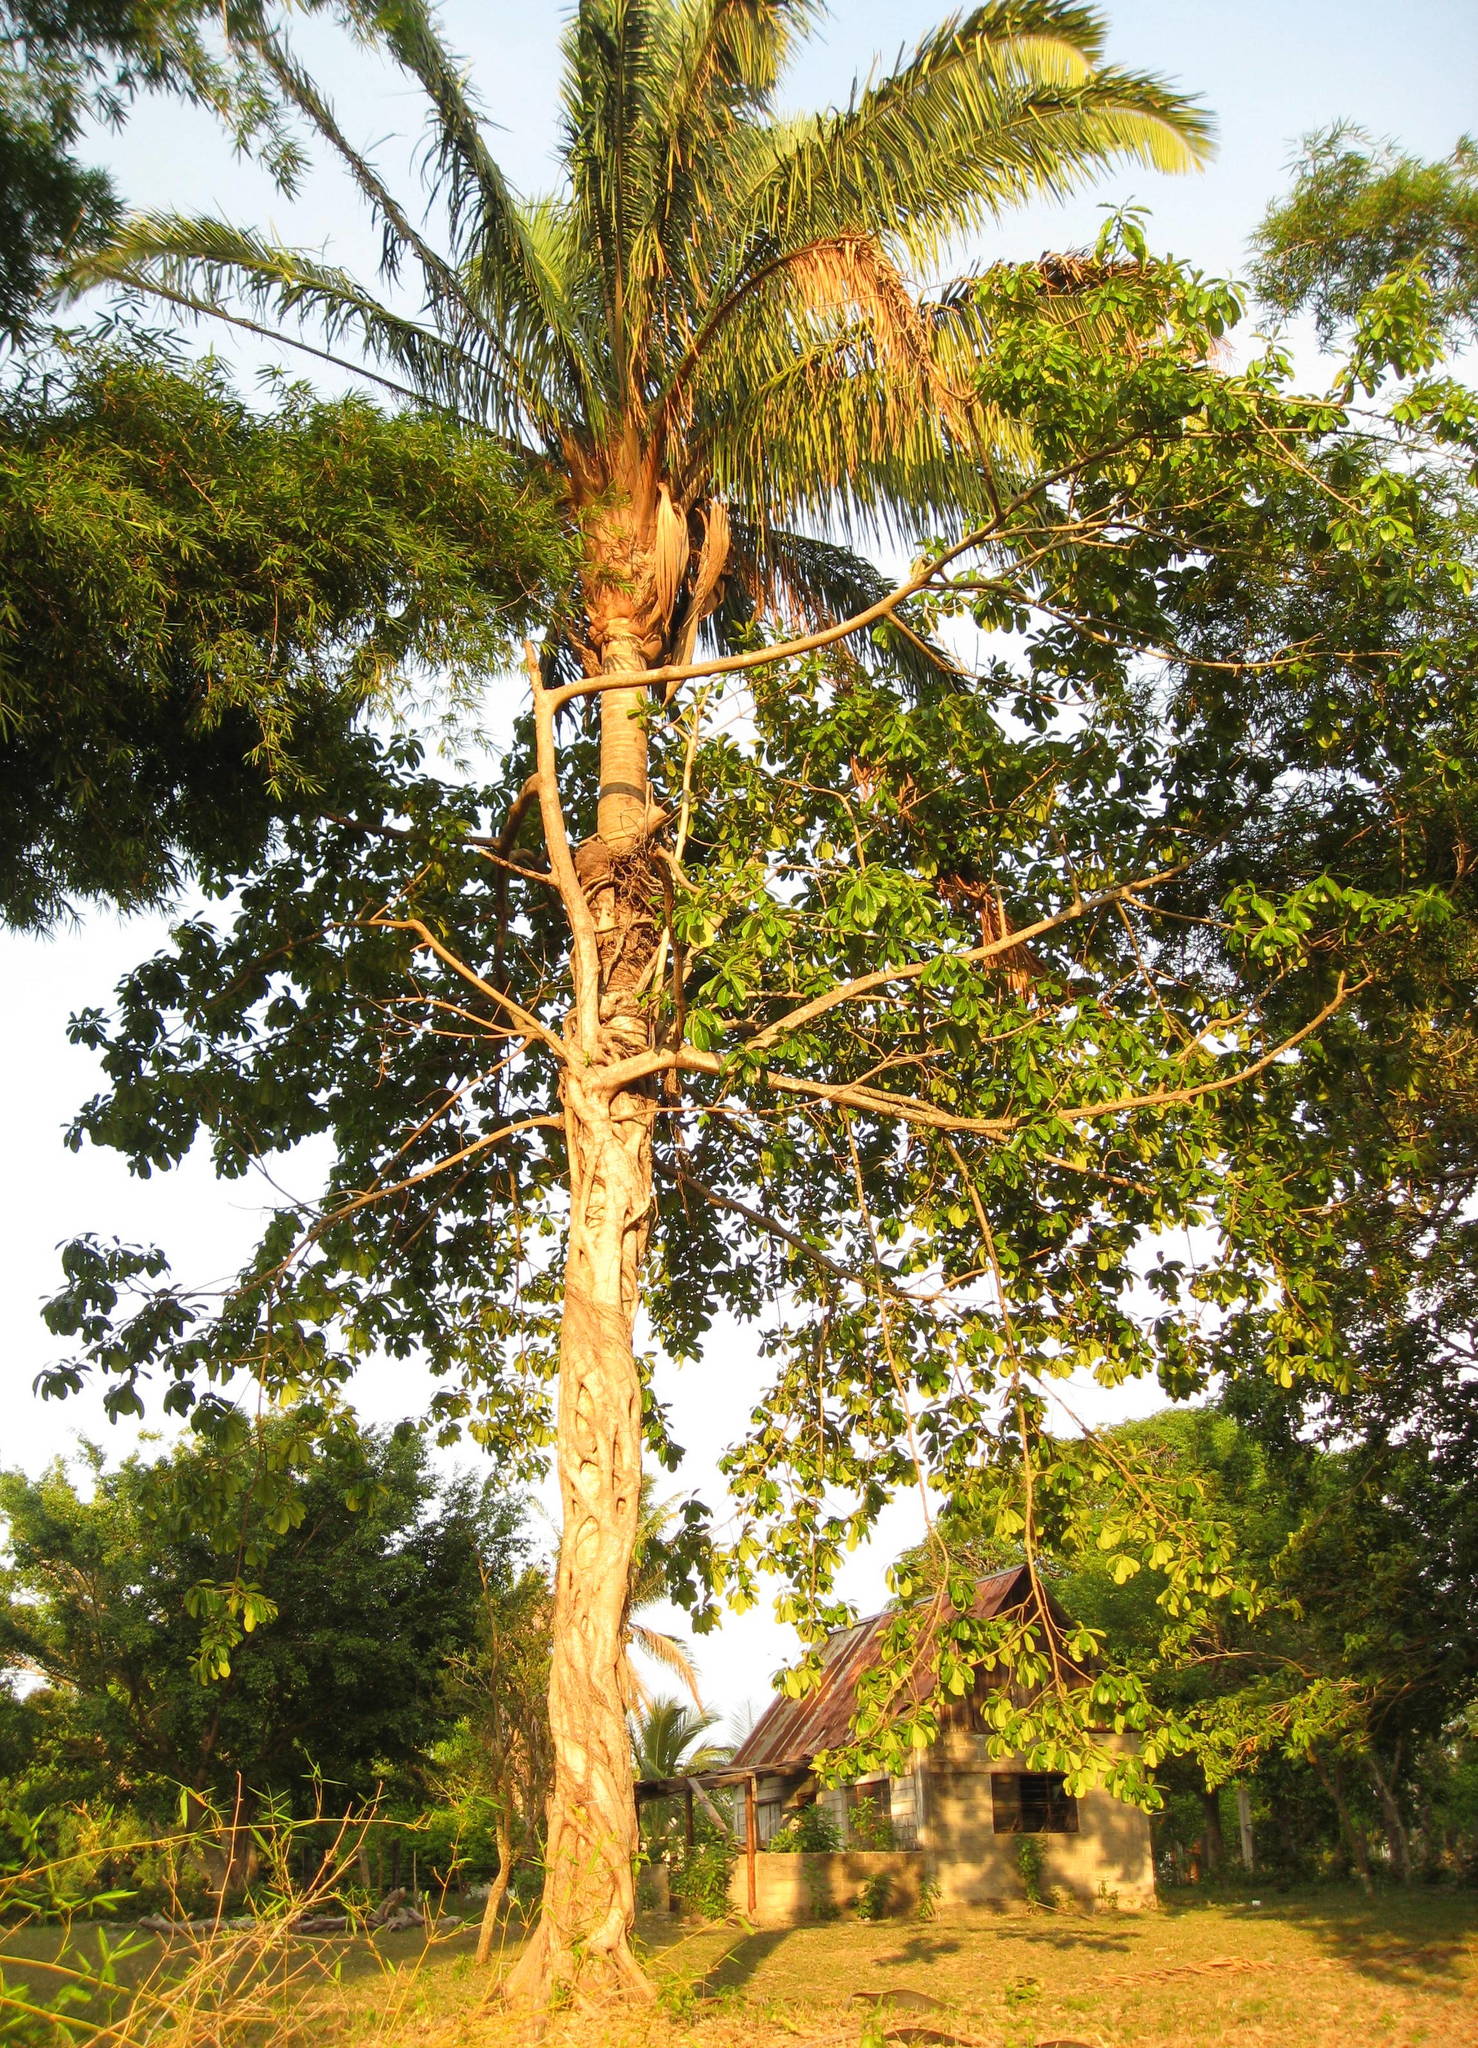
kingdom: Plantae
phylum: Tracheophyta
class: Magnoliopsida
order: Rosales
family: Moraceae
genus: Ficus
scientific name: Ficus aurea
